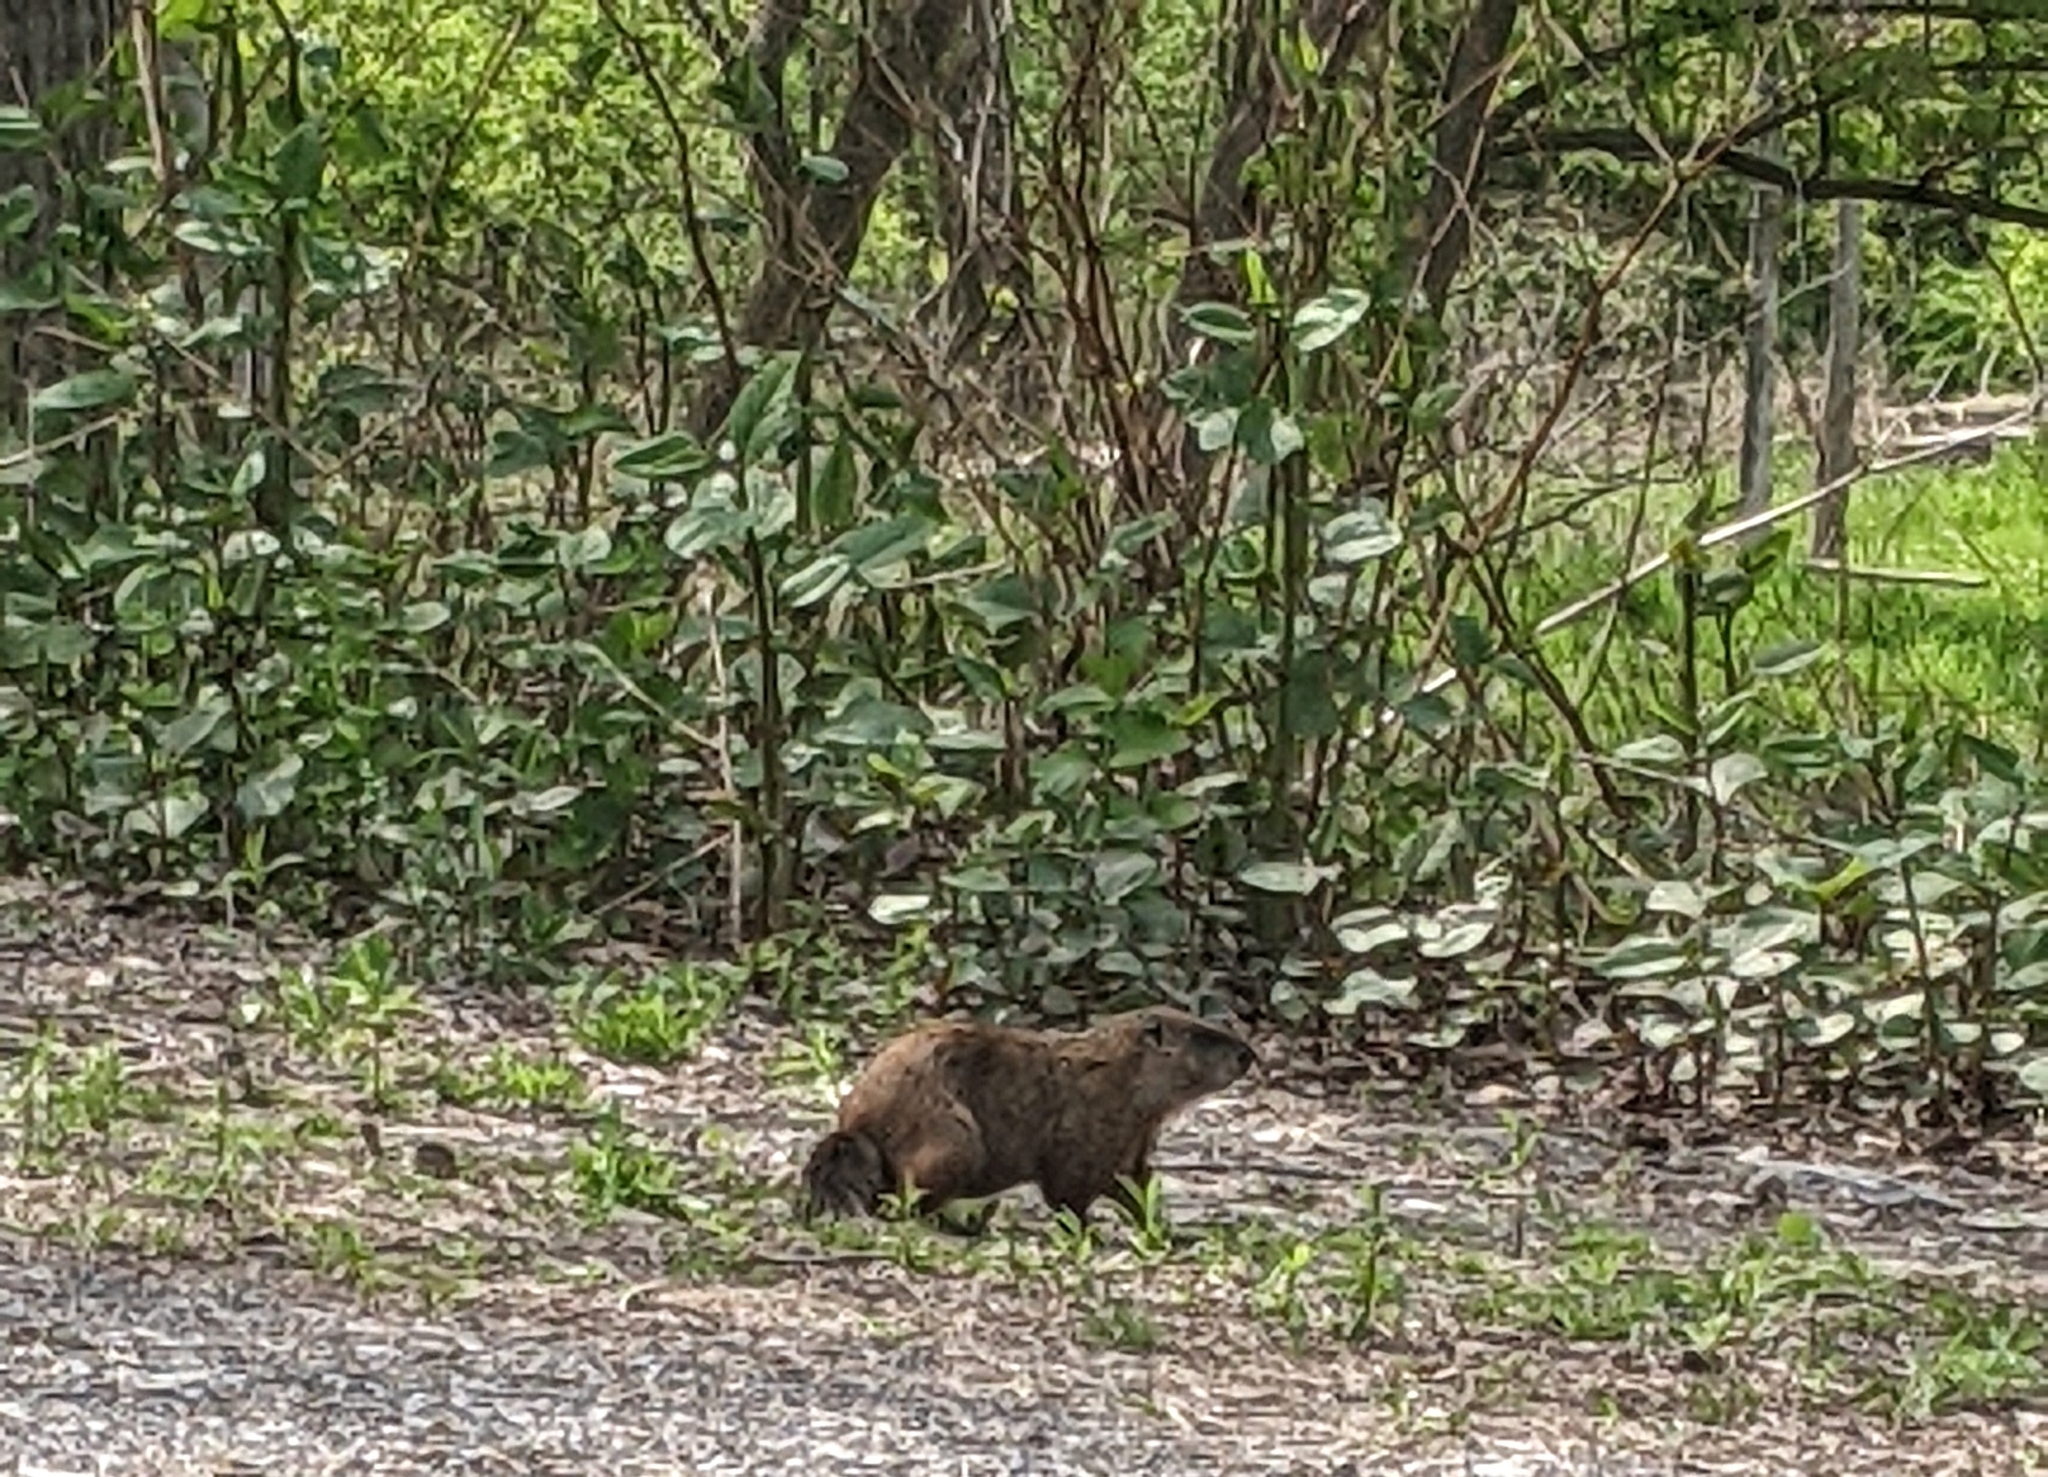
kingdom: Animalia
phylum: Chordata
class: Mammalia
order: Rodentia
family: Sciuridae
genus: Marmota
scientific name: Marmota monax
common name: Groundhog
